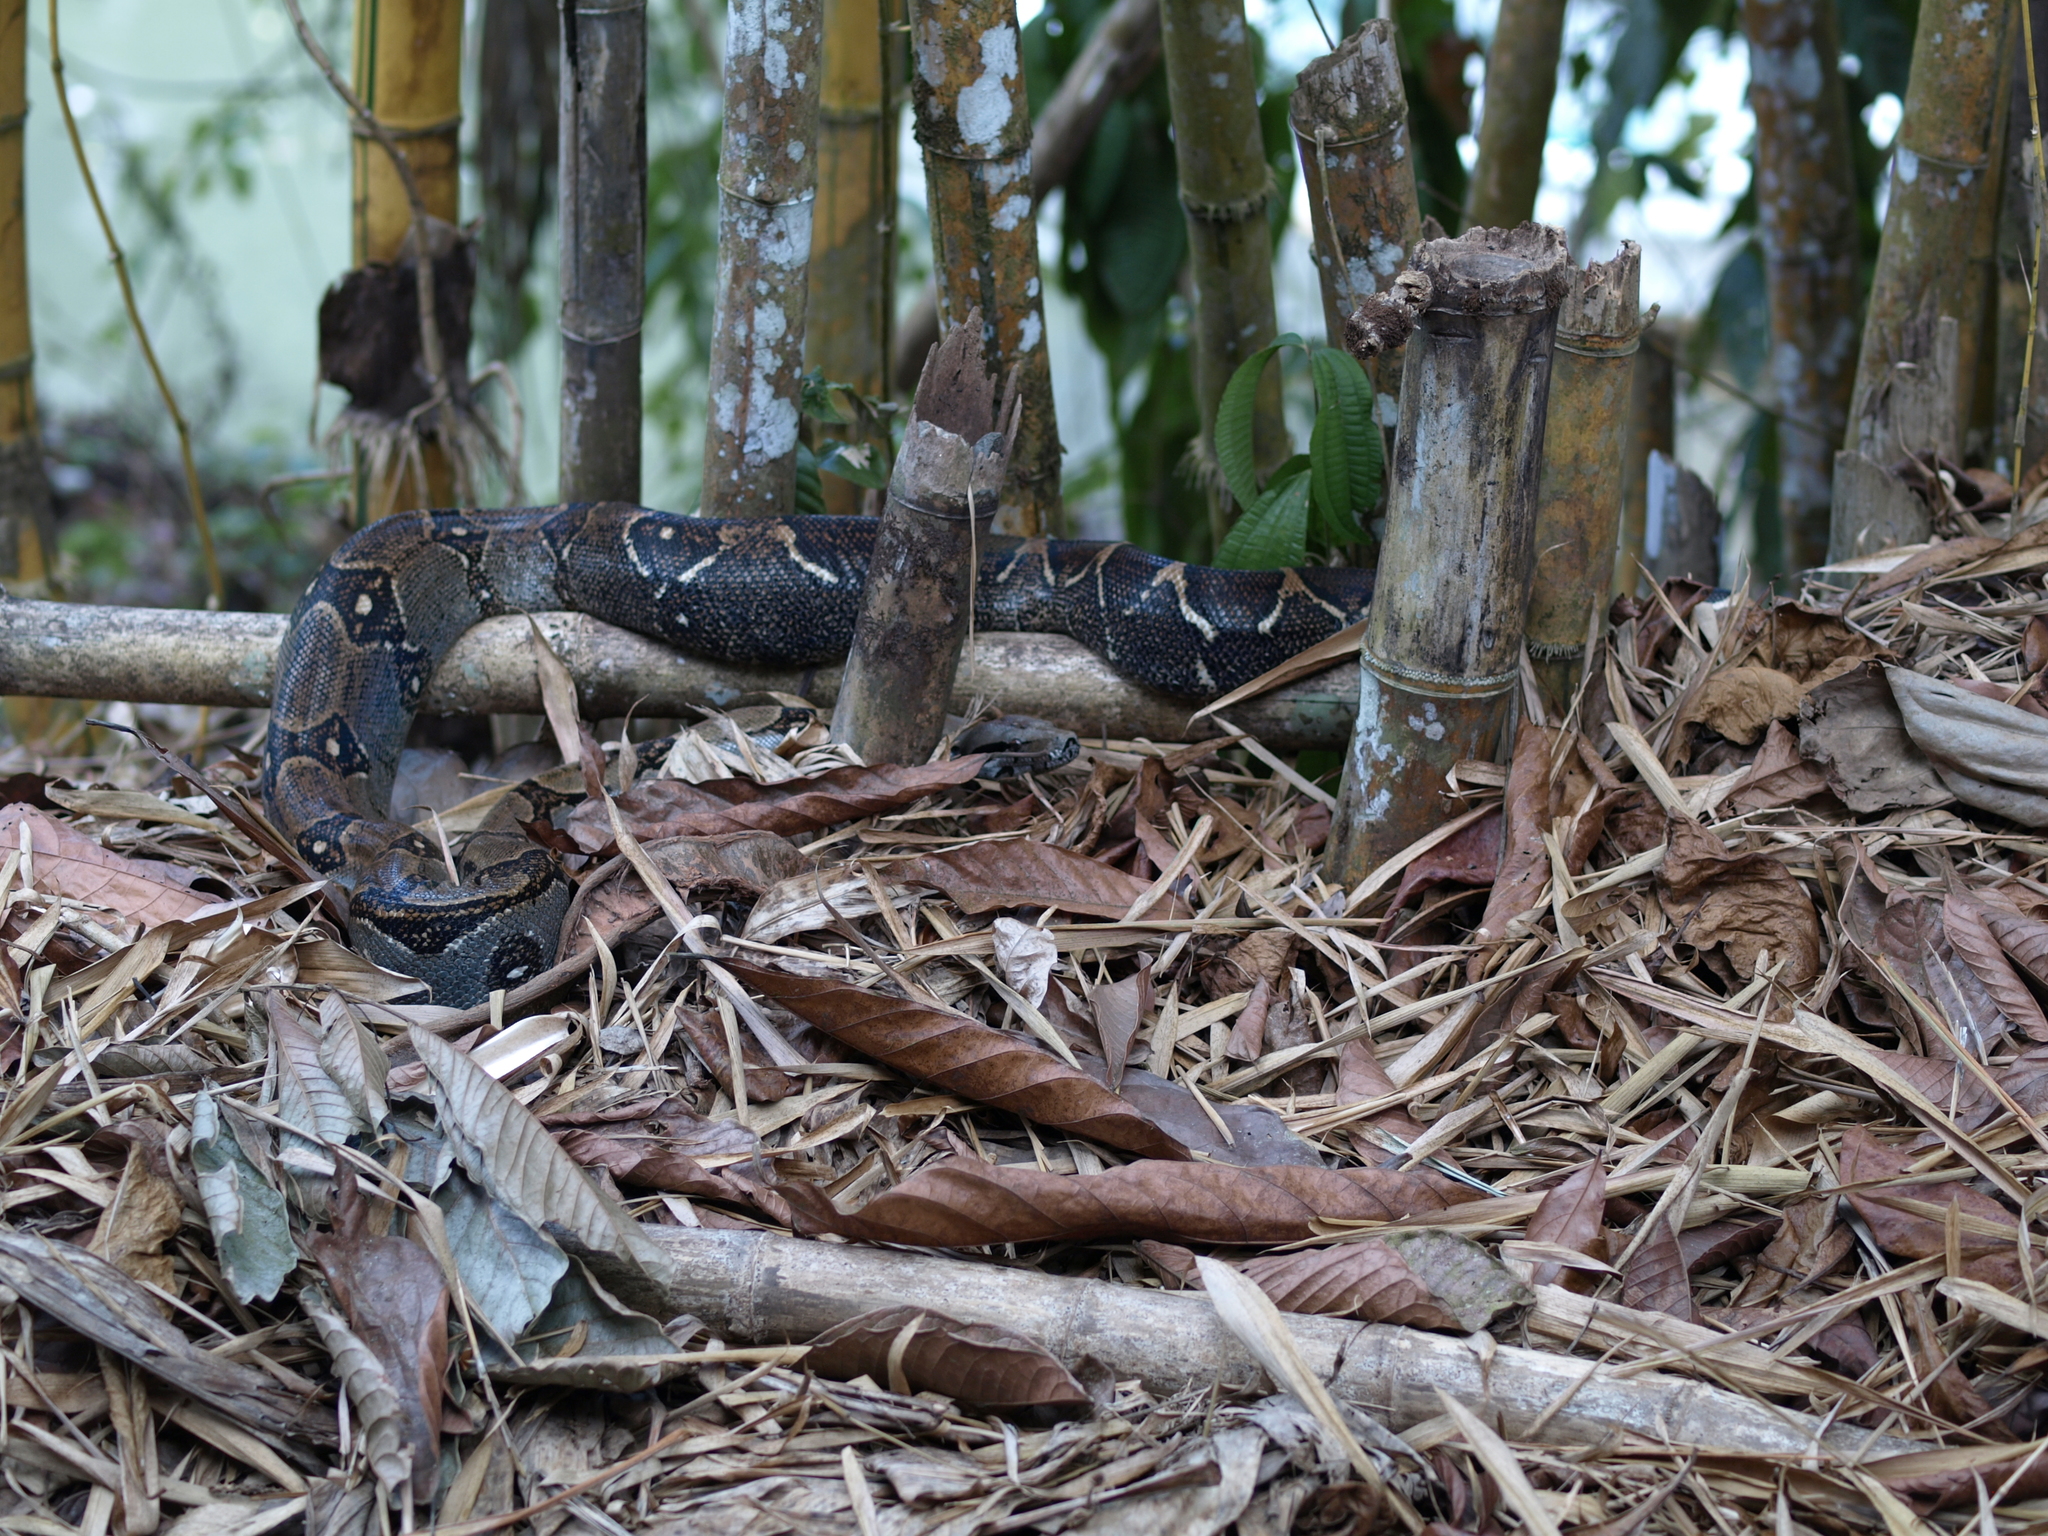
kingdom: Animalia
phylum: Chordata
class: Squamata
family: Boidae
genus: Boa
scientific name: Boa imperator
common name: Central american boa
